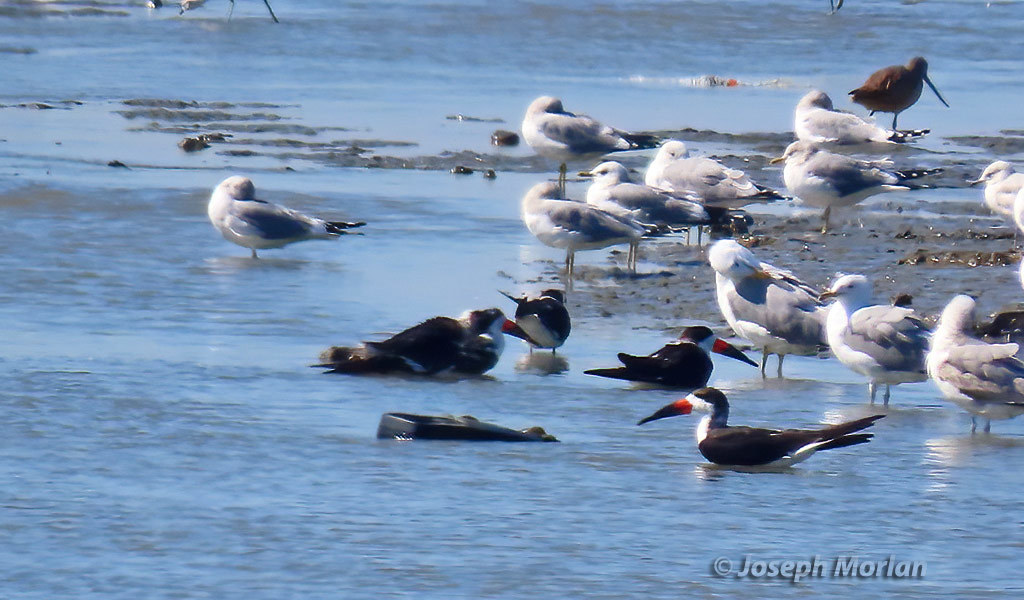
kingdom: Animalia
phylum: Chordata
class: Aves
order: Charadriiformes
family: Laridae
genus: Rynchops
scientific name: Rynchops niger
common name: Black skimmer
